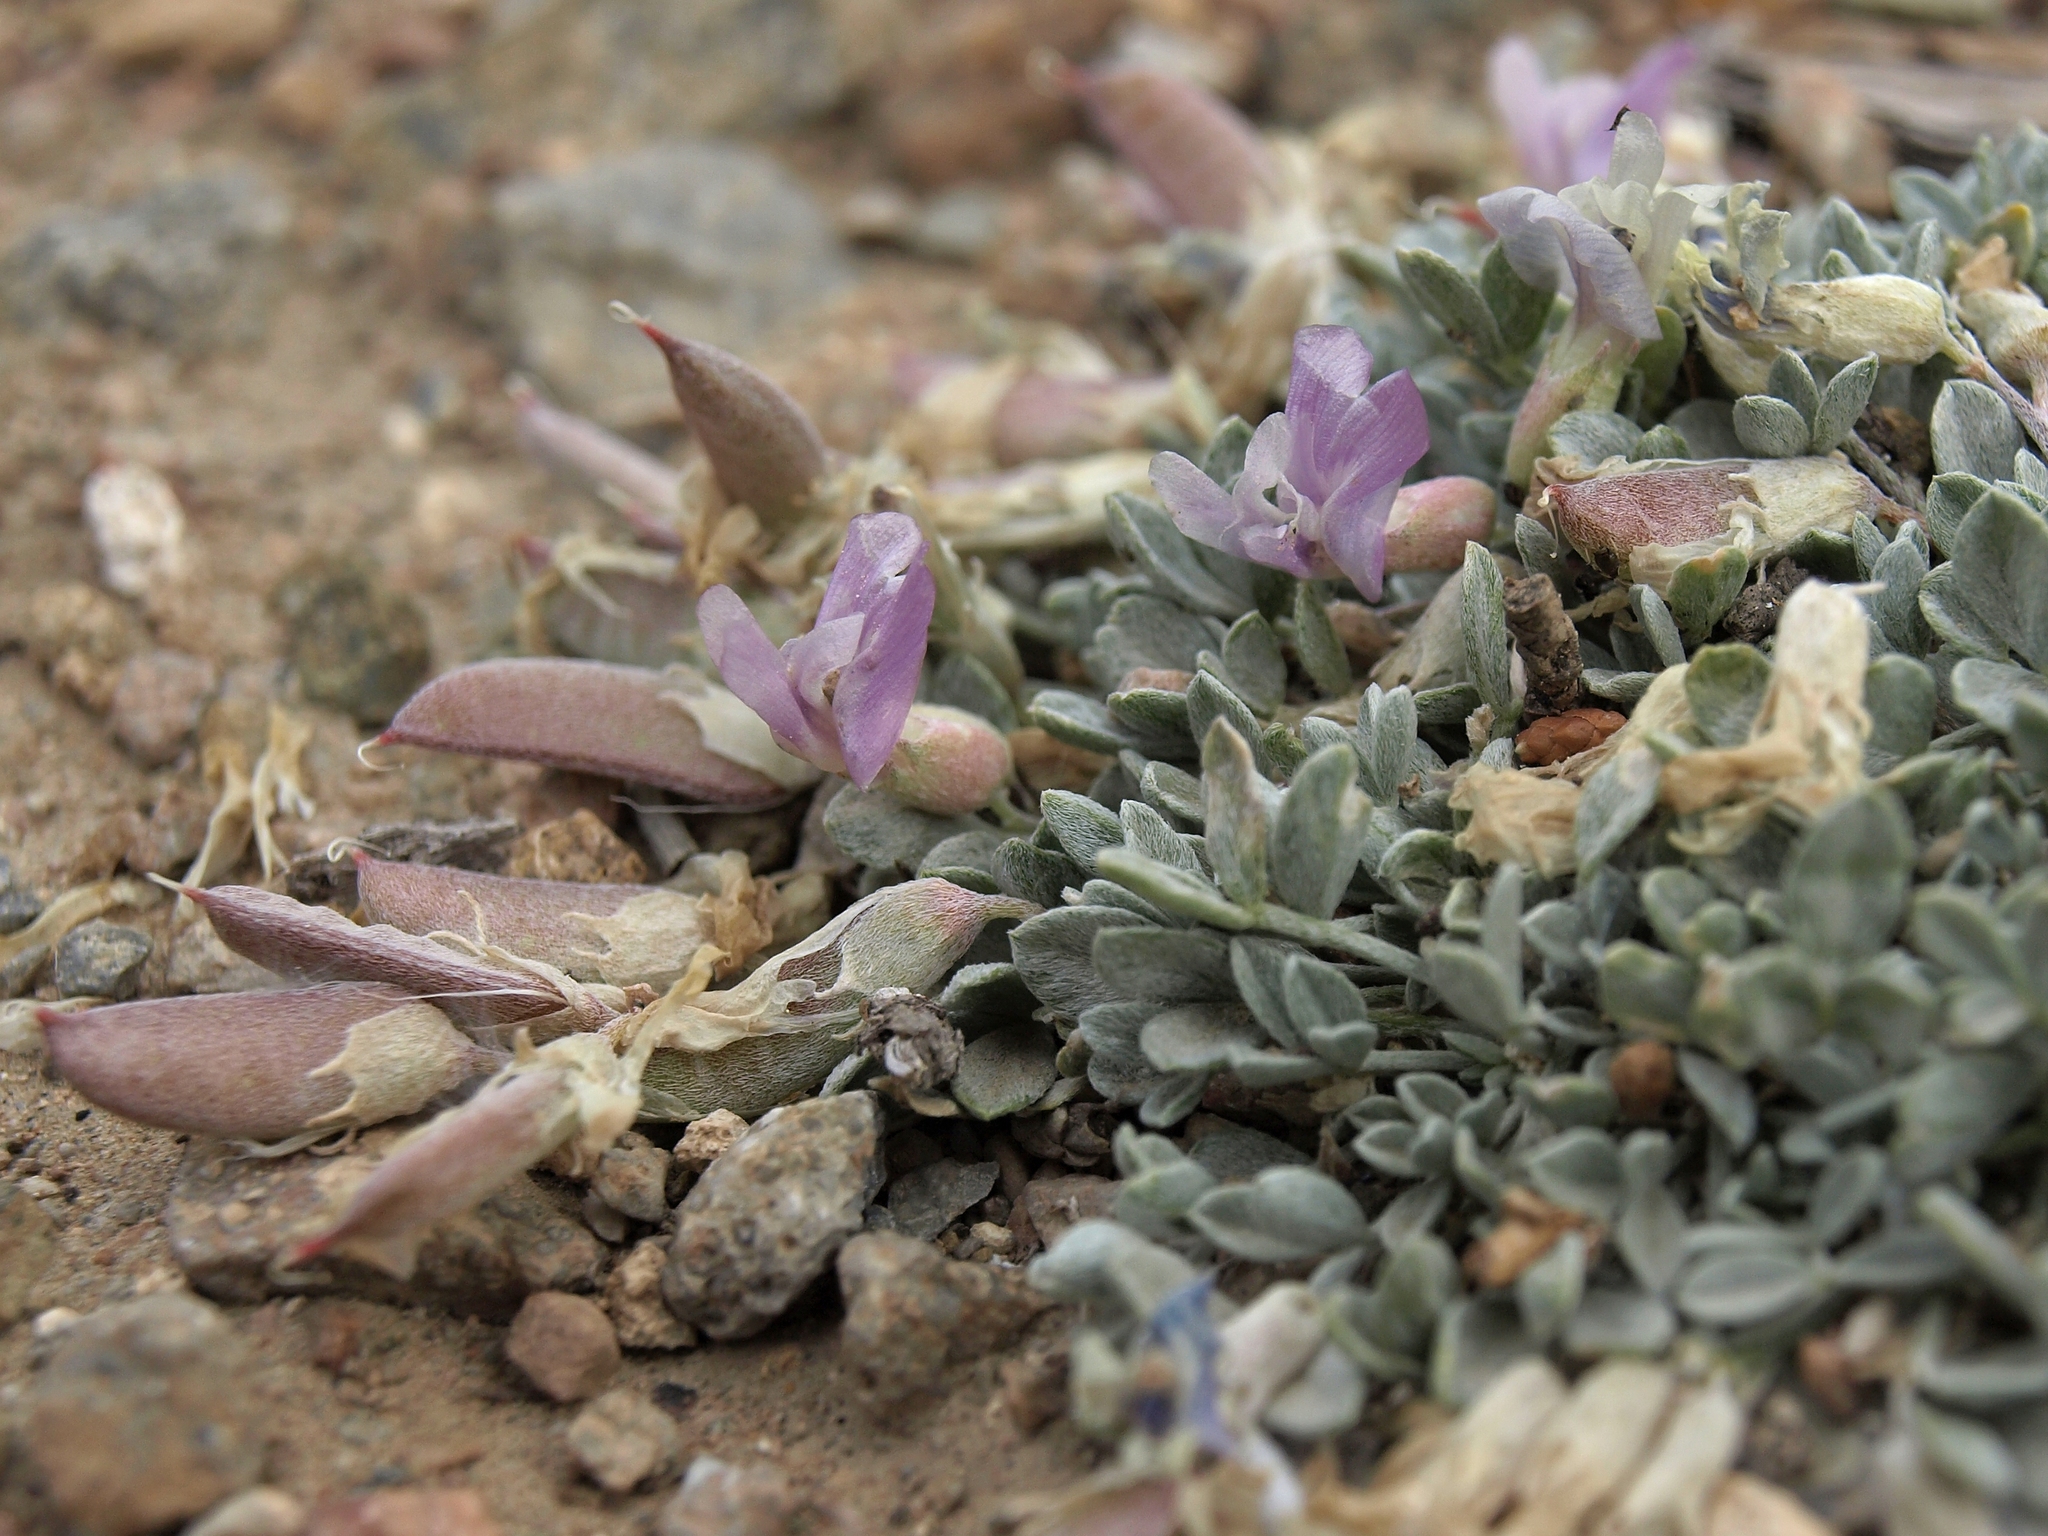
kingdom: Plantae
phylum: Tracheophyta
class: Magnoliopsida
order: Fabales
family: Fabaceae
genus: Astragalus
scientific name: Astragalus calycosus
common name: King's milkvetch
